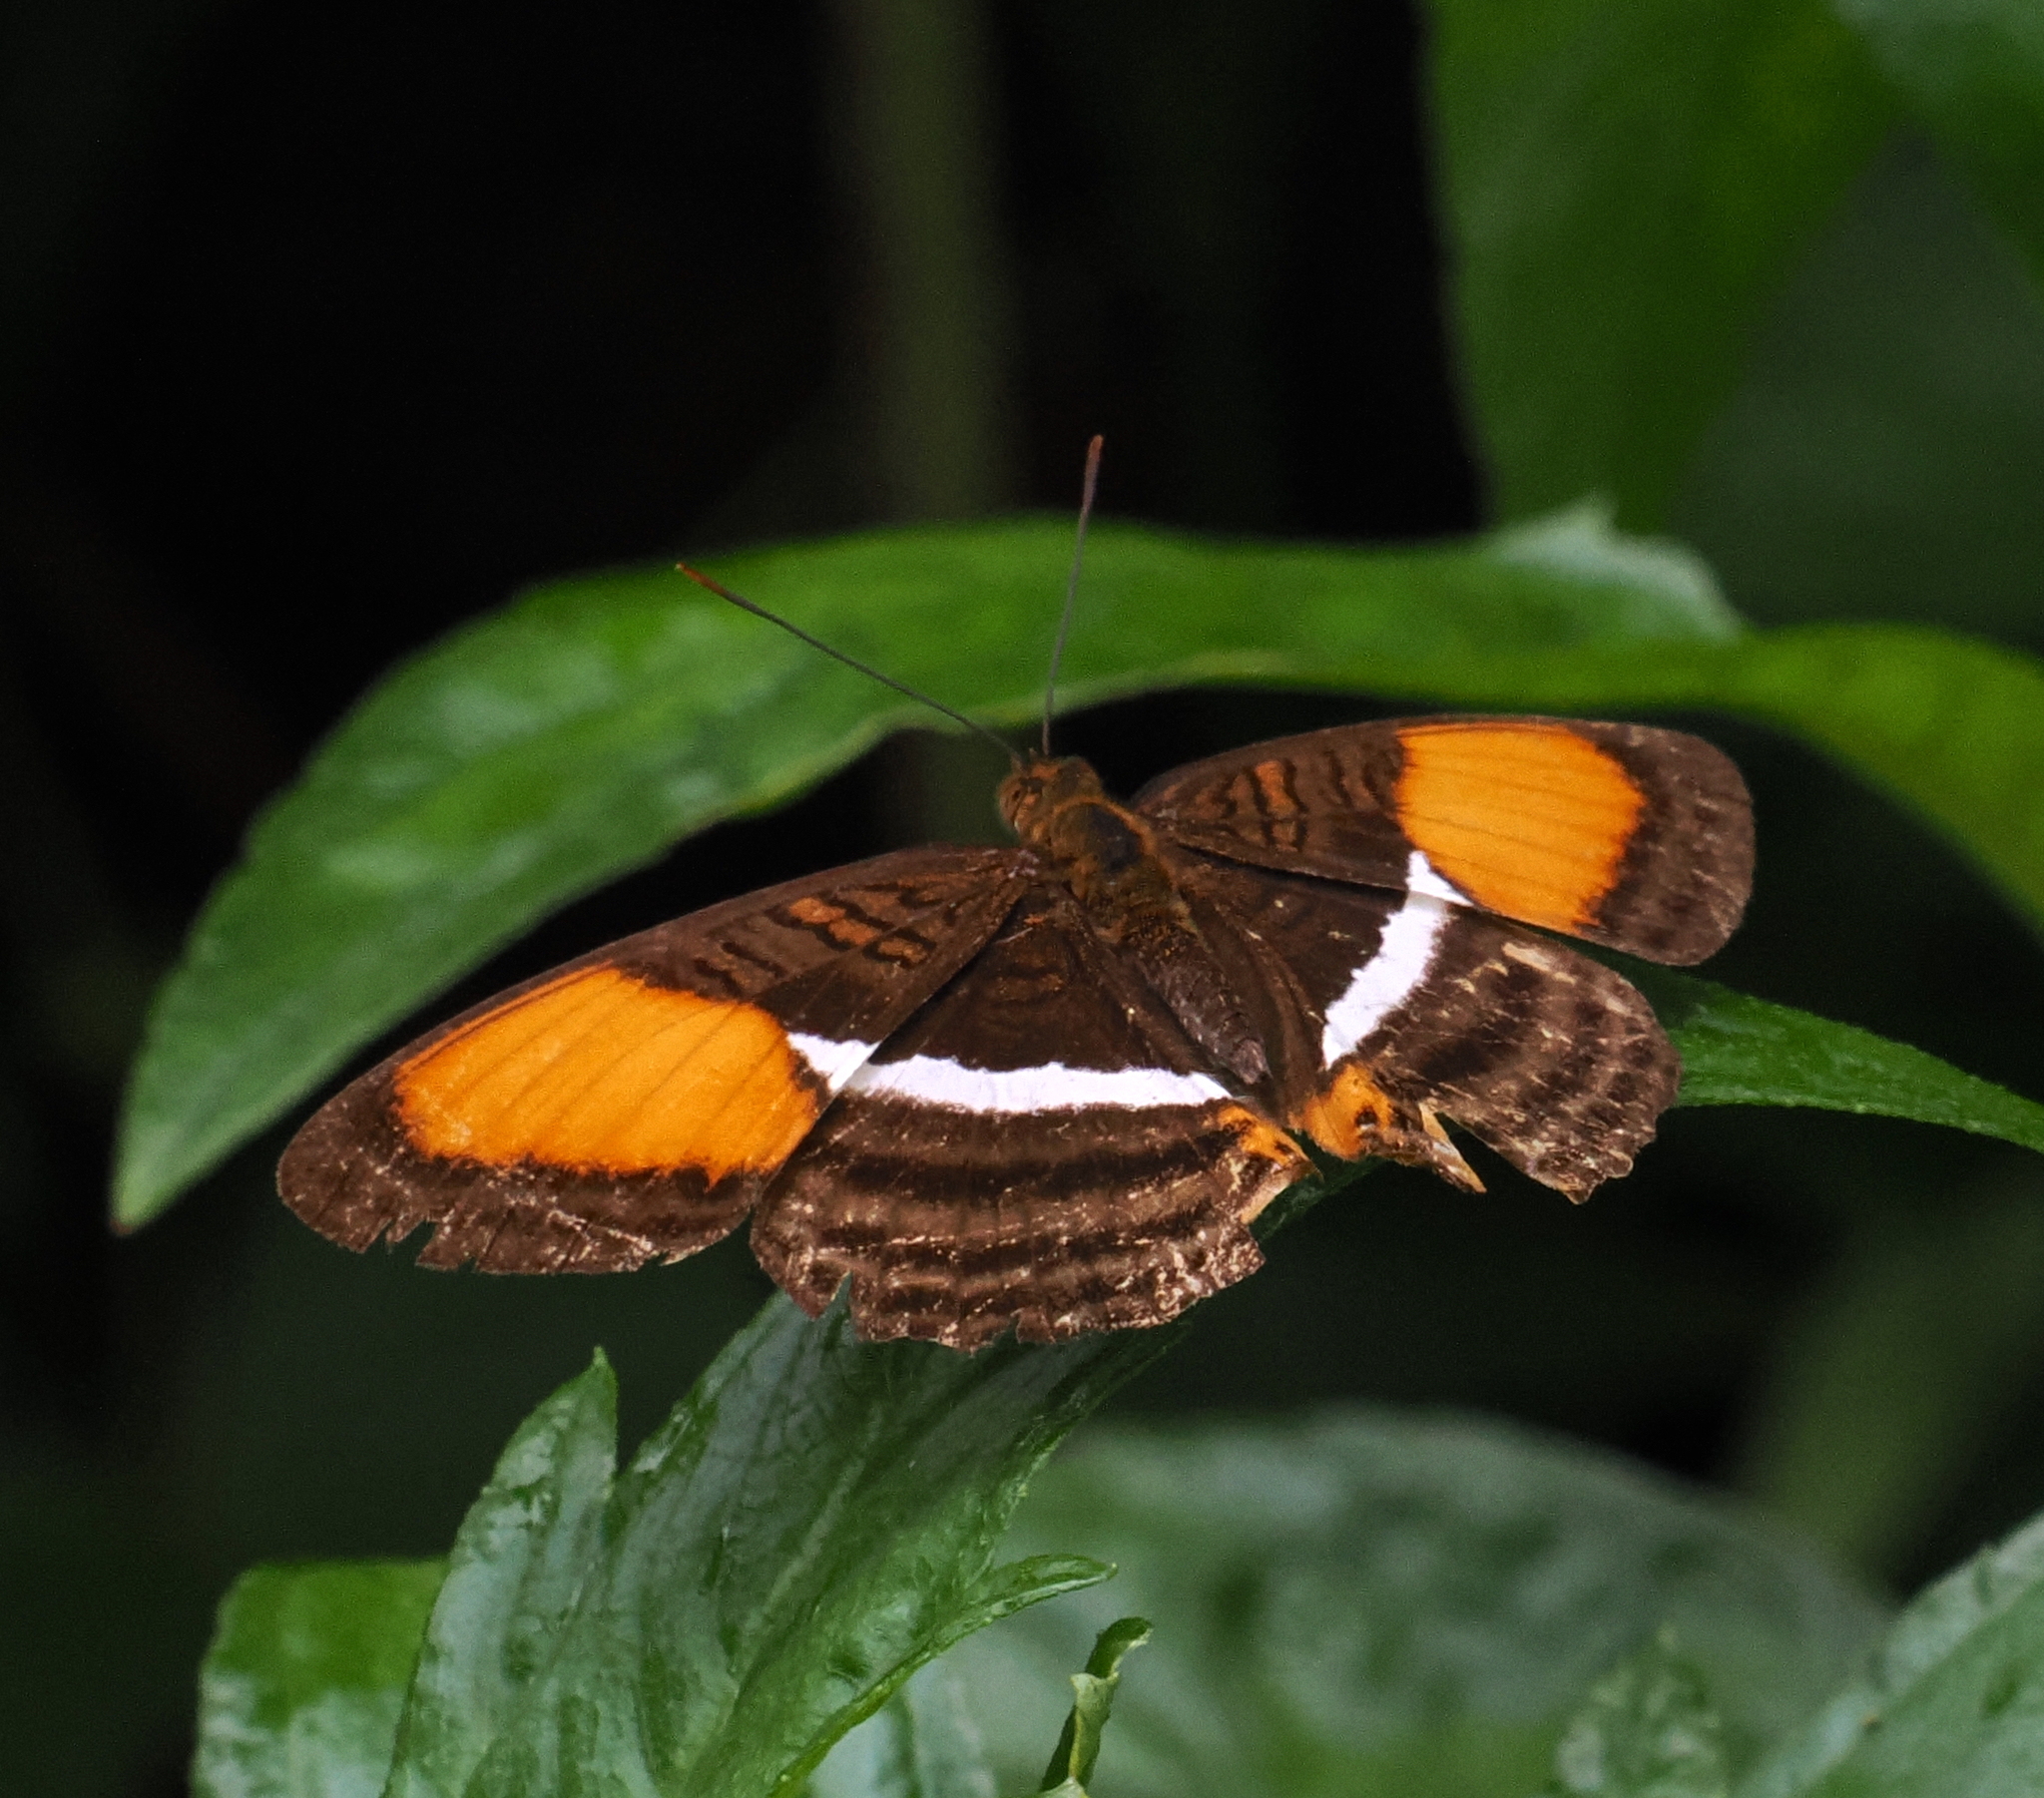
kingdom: Animalia
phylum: Arthropoda
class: Insecta
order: Lepidoptera
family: Nymphalidae
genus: Limenitis
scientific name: Limenitis cytherea
